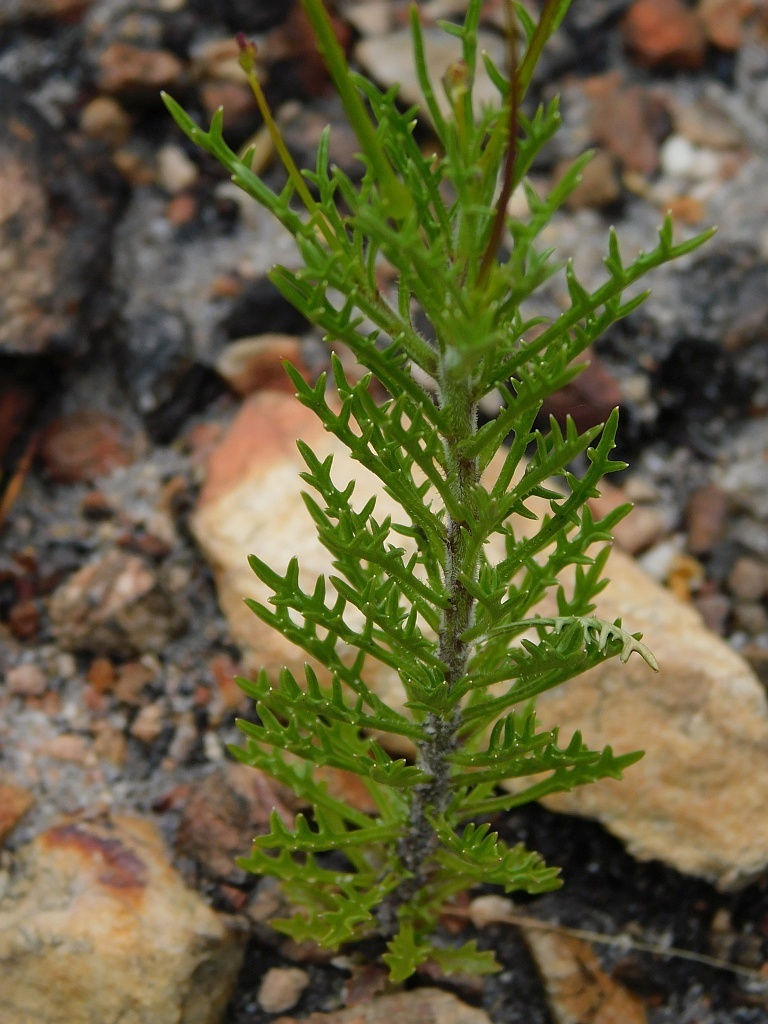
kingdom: Plantae
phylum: Tracheophyta
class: Magnoliopsida
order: Asterales
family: Campanulaceae
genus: Lobelia
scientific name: Lobelia coronopifolia
